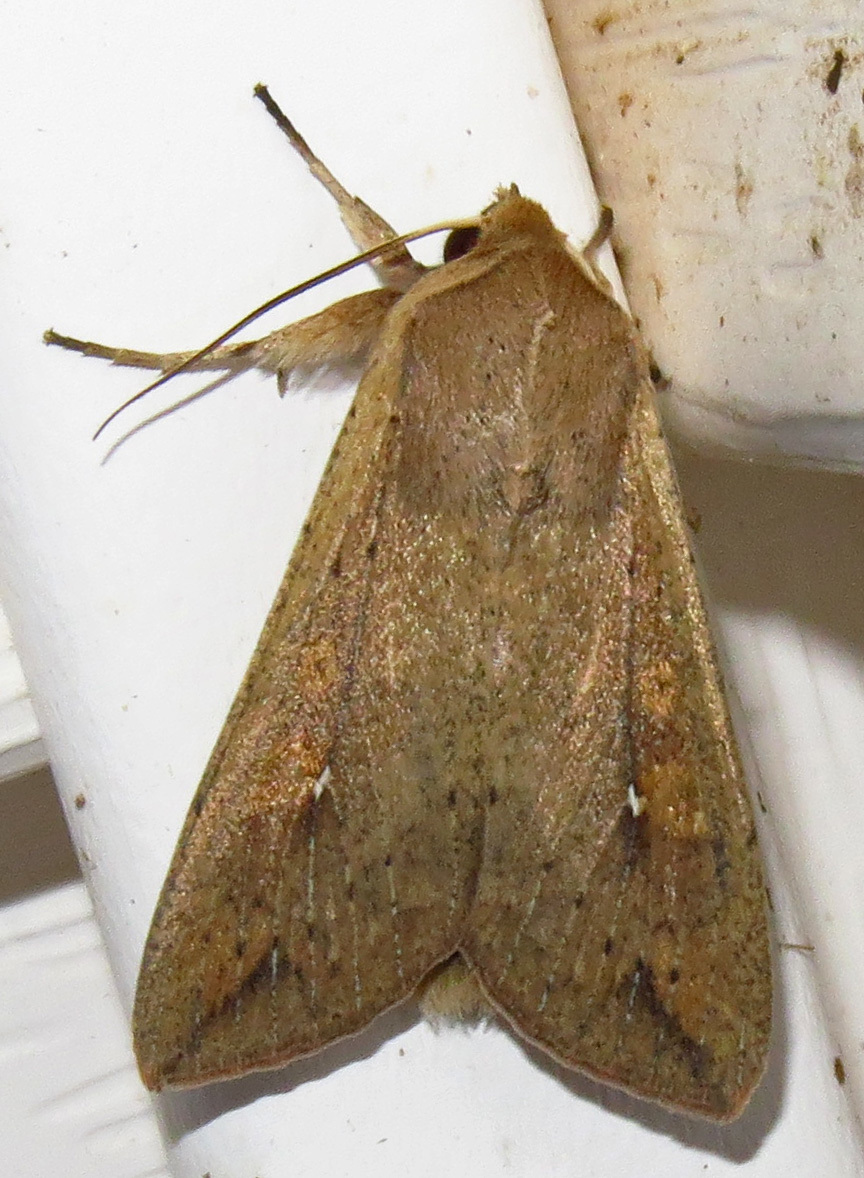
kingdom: Animalia
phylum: Arthropoda
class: Insecta
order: Lepidoptera
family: Noctuidae
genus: Mythimna
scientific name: Mythimna unipuncta
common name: White-speck
